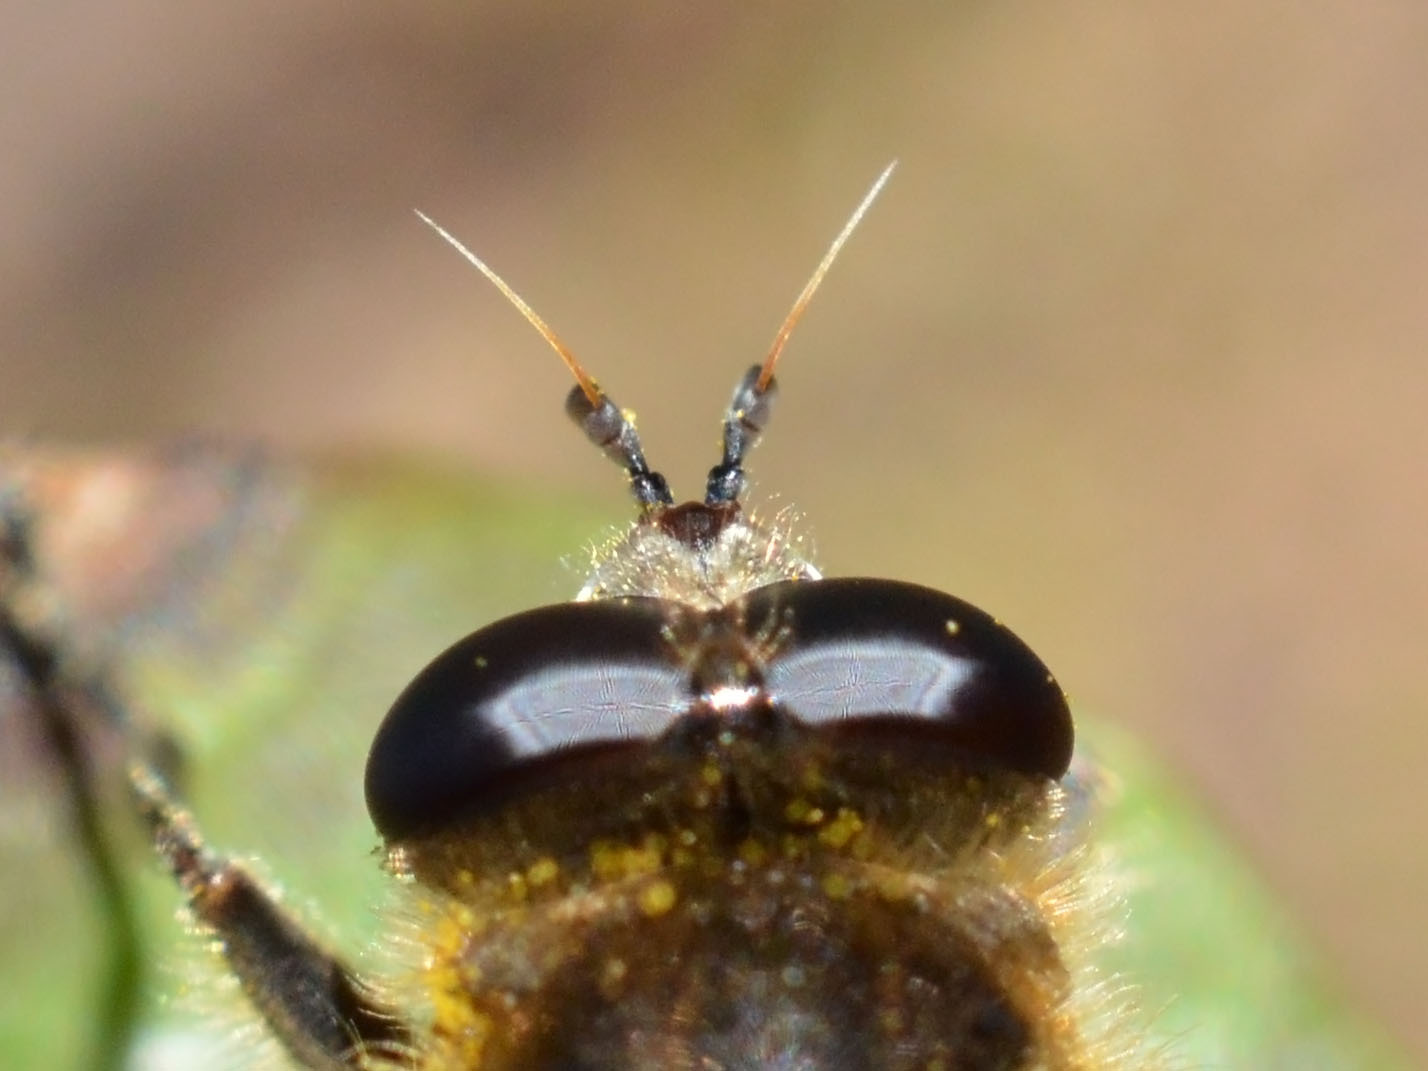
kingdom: Animalia
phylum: Arthropoda
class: Insecta
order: Diptera
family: Syrphidae
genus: Brachypalpus
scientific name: Brachypalpus valgus
